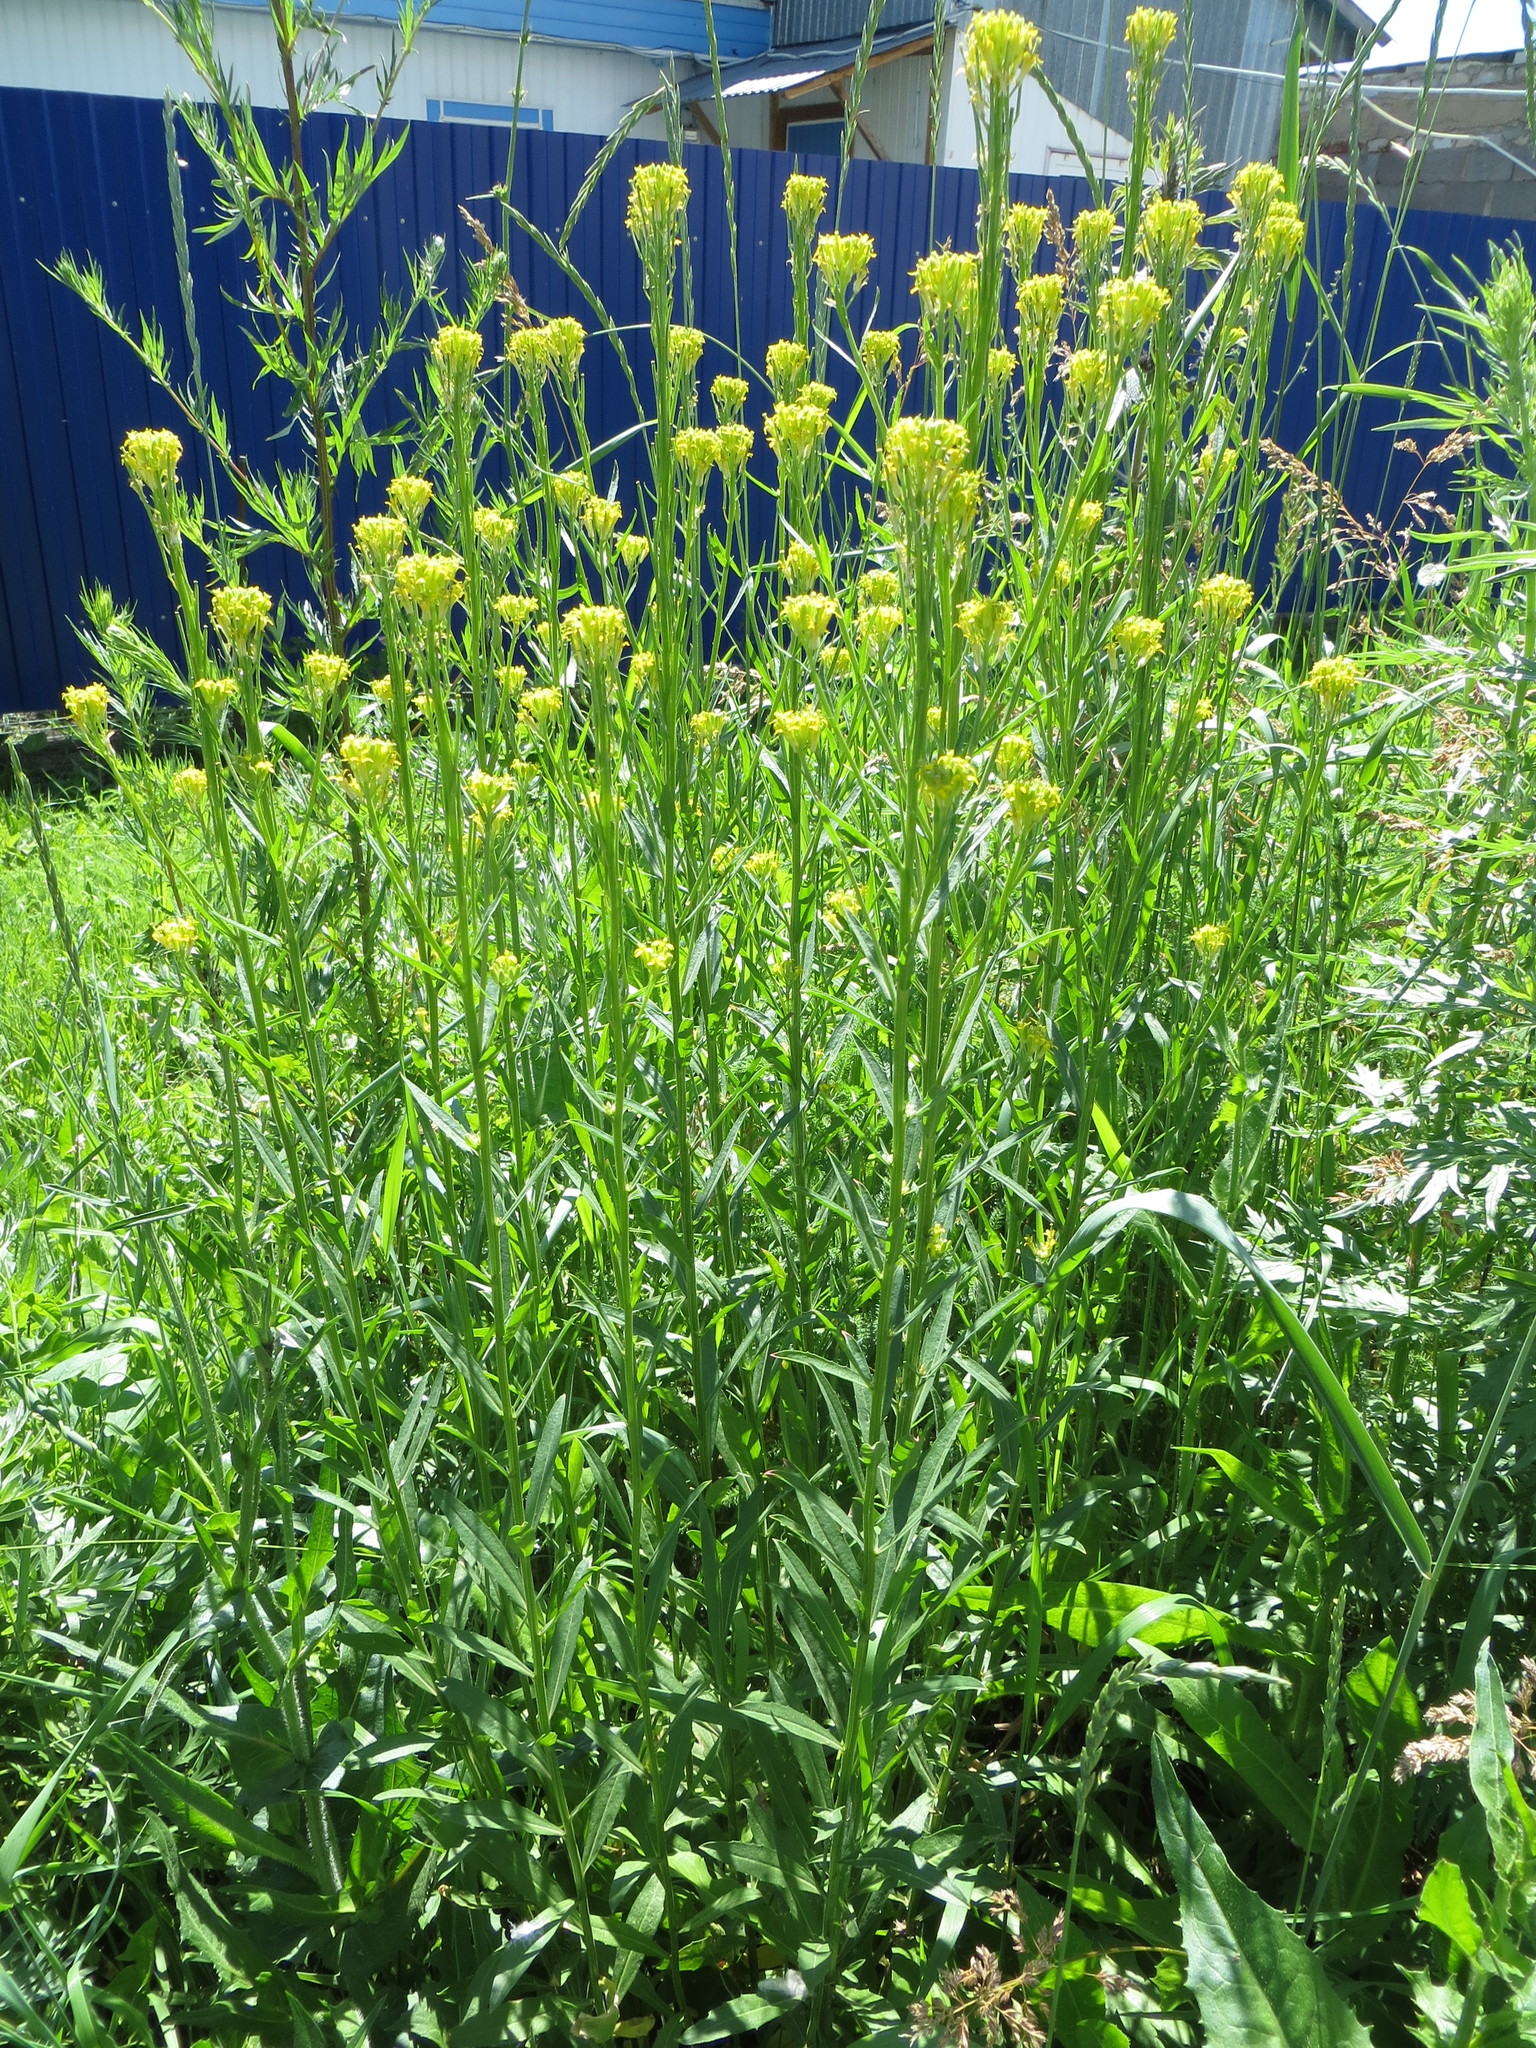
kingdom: Plantae
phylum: Tracheophyta
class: Magnoliopsida
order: Brassicales
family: Brassicaceae
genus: Erysimum
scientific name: Erysimum hieraciifolium
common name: European wallflower
